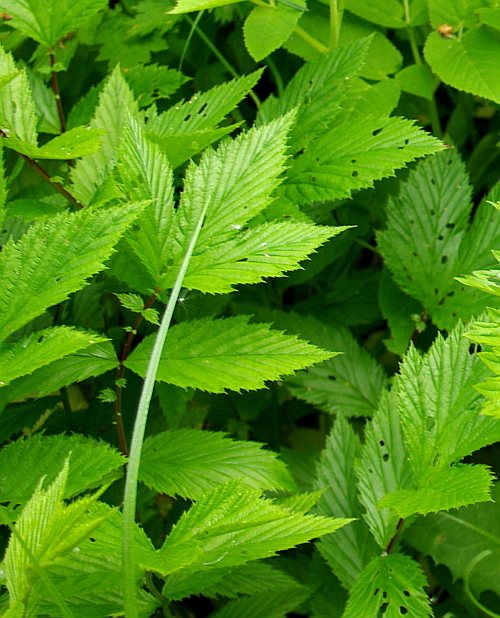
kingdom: Plantae
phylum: Tracheophyta
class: Magnoliopsida
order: Rosales
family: Rosaceae
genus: Filipendula
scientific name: Filipendula ulmaria
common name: Meadowsweet
